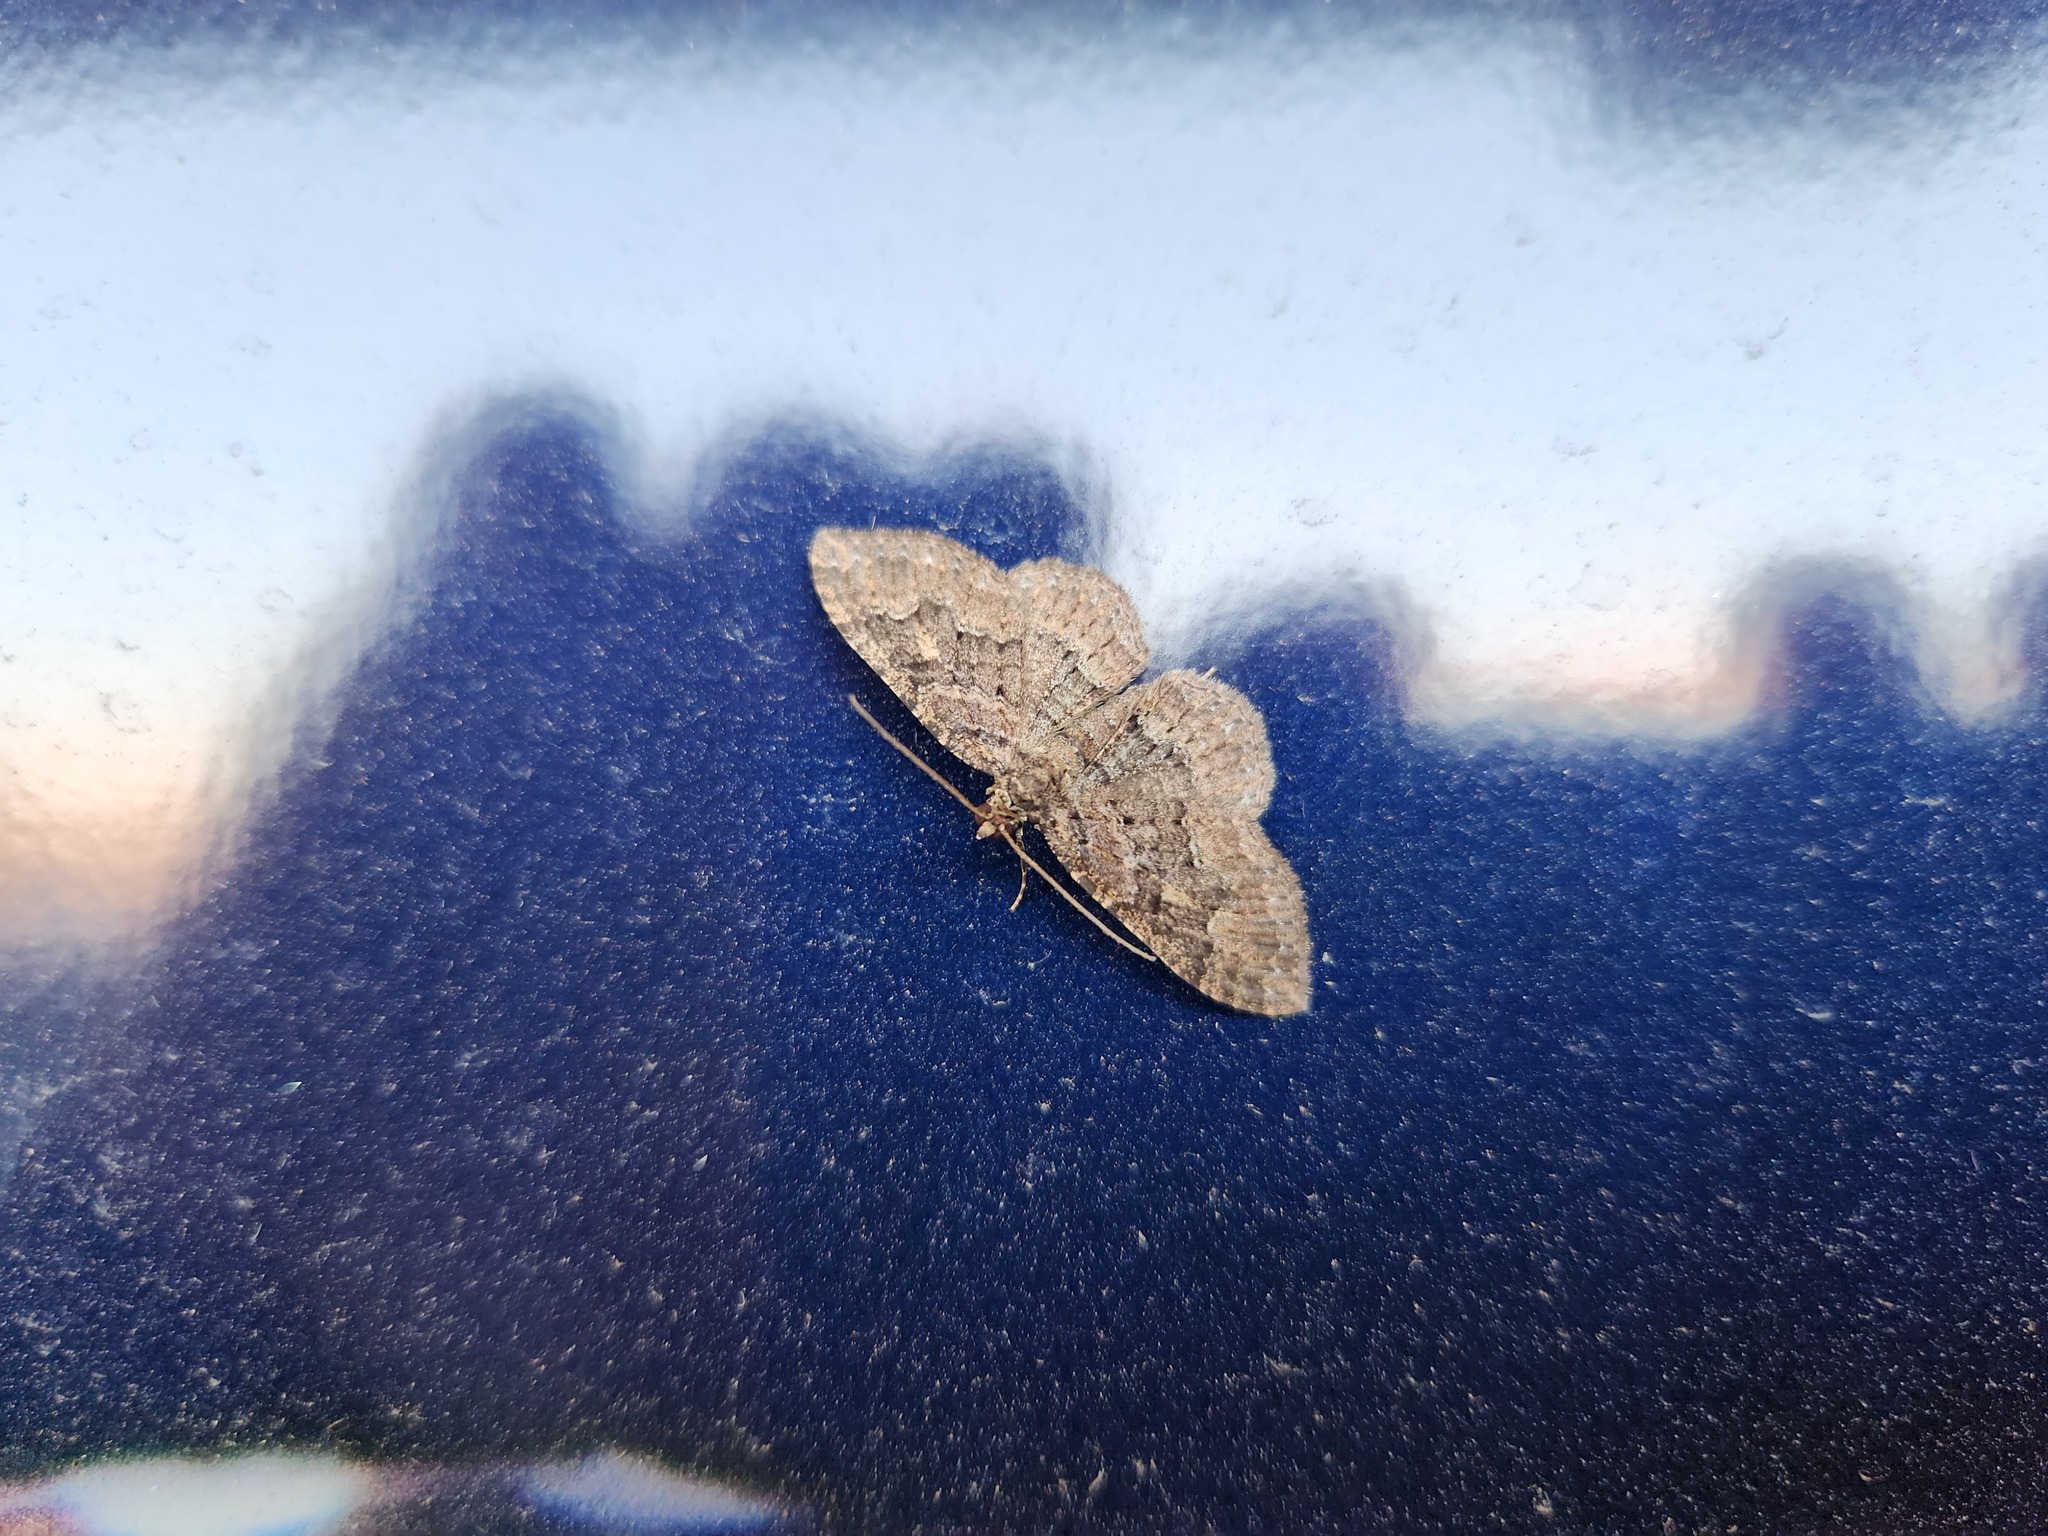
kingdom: Animalia
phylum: Arthropoda
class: Insecta
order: Lepidoptera
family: Geometridae
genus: Disclisioprocta
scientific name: Disclisioprocta stellata
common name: Somber carpet
